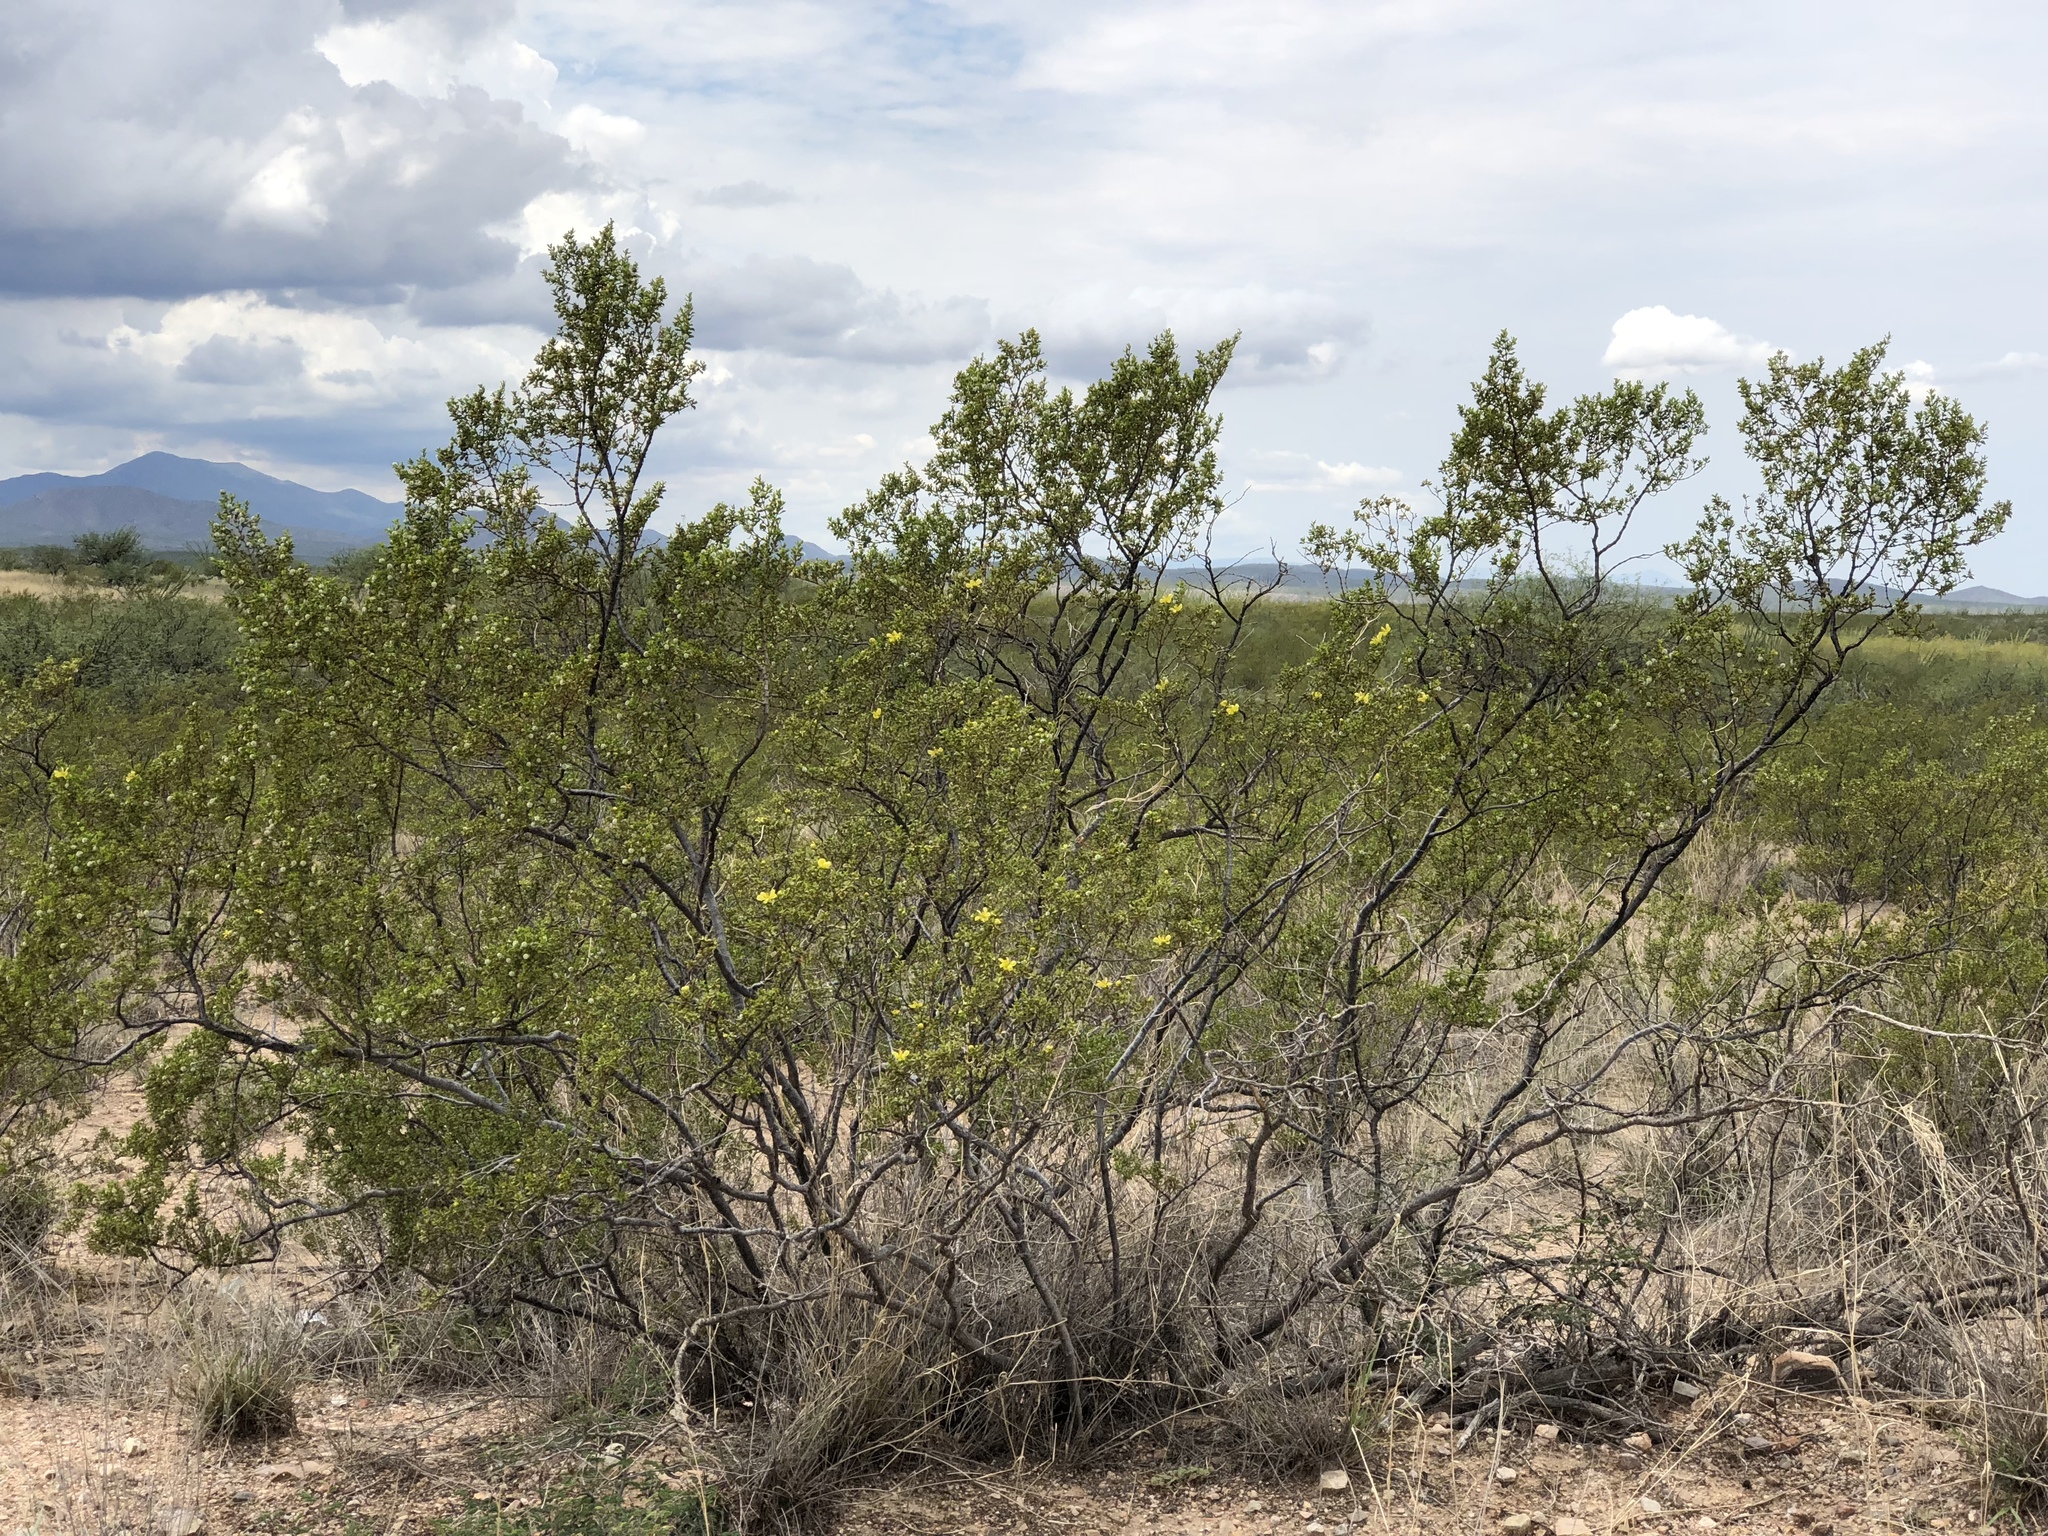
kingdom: Plantae
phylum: Tracheophyta
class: Magnoliopsida
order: Zygophyllales
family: Zygophyllaceae
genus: Larrea
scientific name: Larrea tridentata
